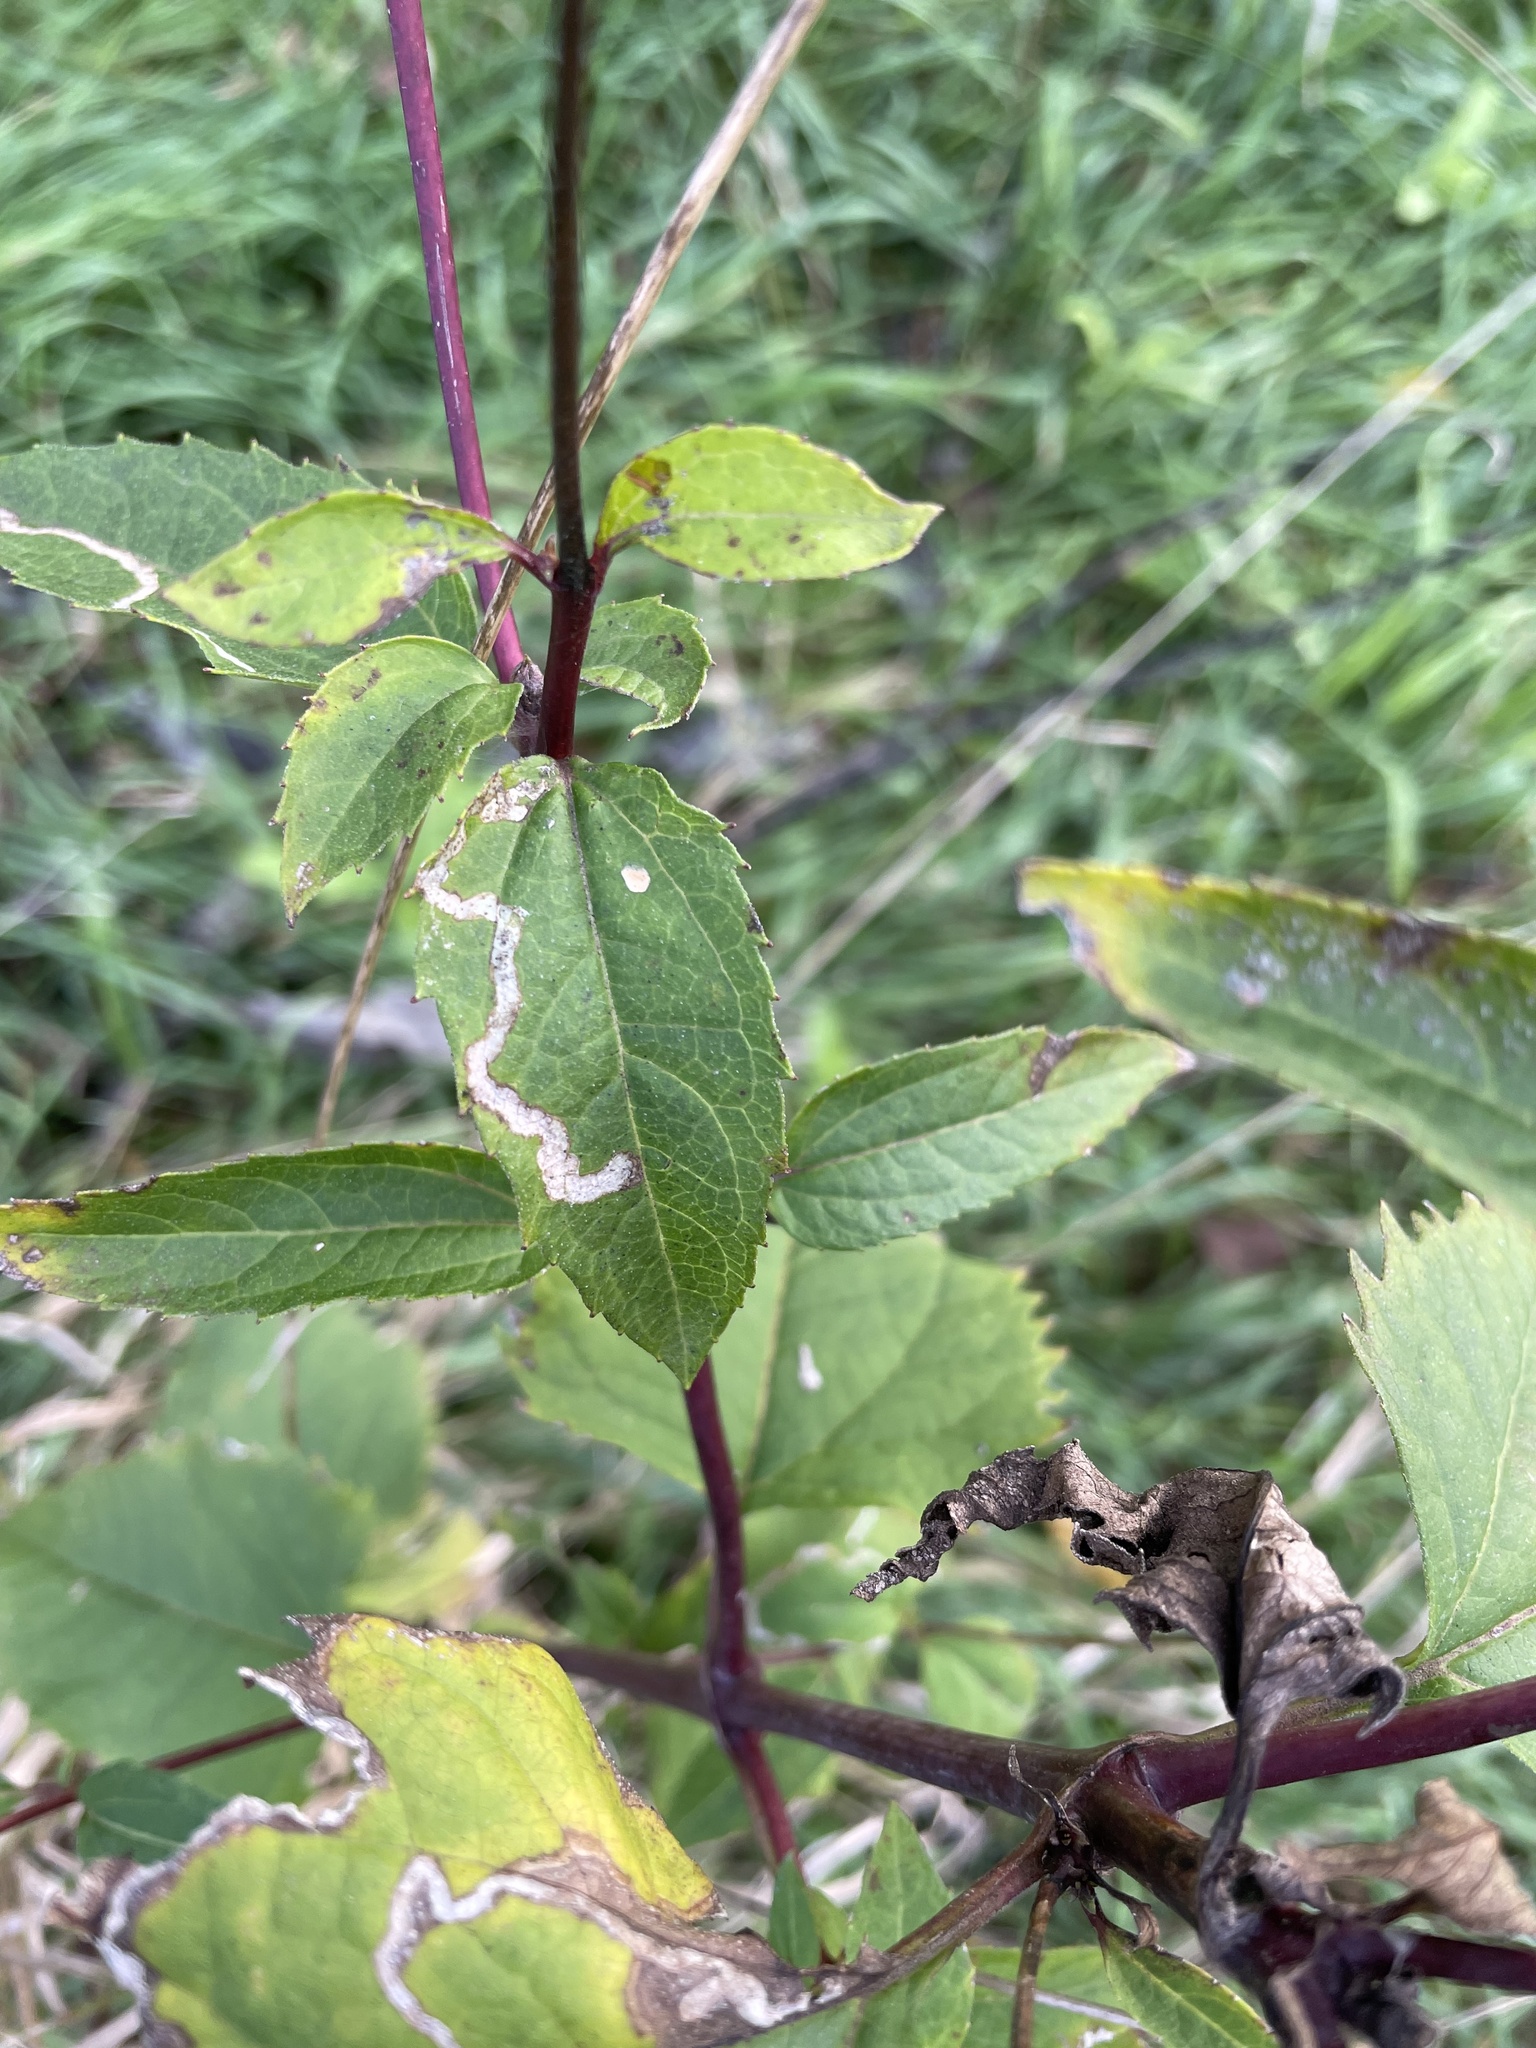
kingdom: Animalia
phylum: Arthropoda
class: Insecta
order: Diptera
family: Agromyzidae
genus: Liriomyza
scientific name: Liriomyza arctii
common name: Burdock leafminer
